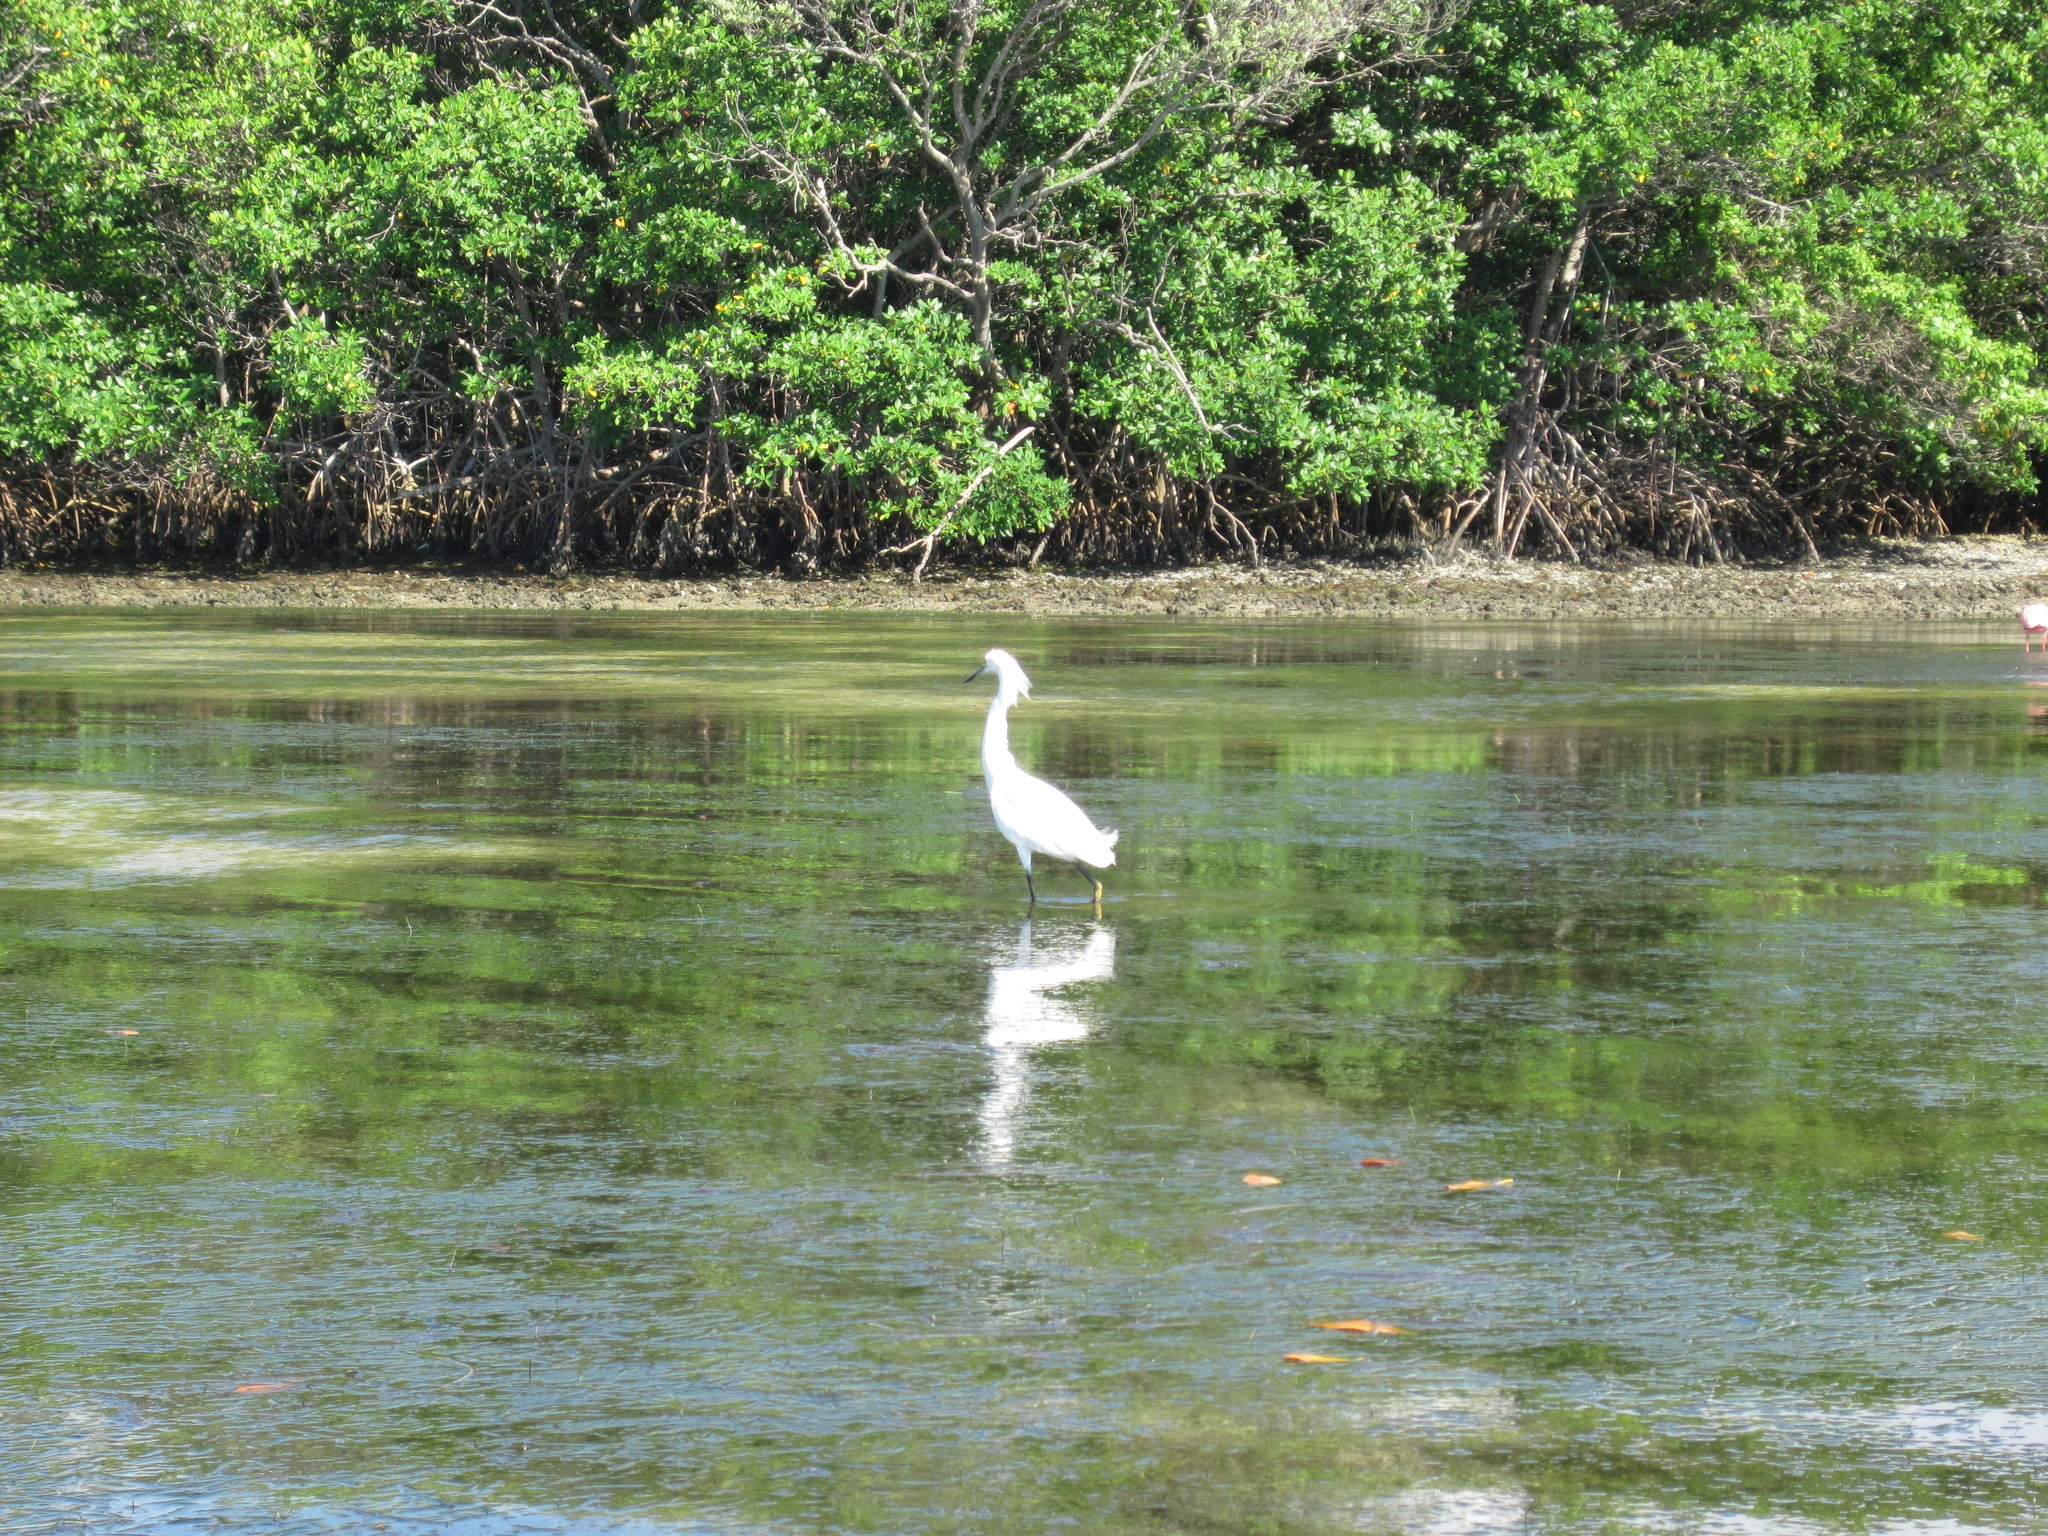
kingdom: Animalia
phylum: Chordata
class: Aves
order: Pelecaniformes
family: Ardeidae
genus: Egretta
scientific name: Egretta thula
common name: Snowy egret
